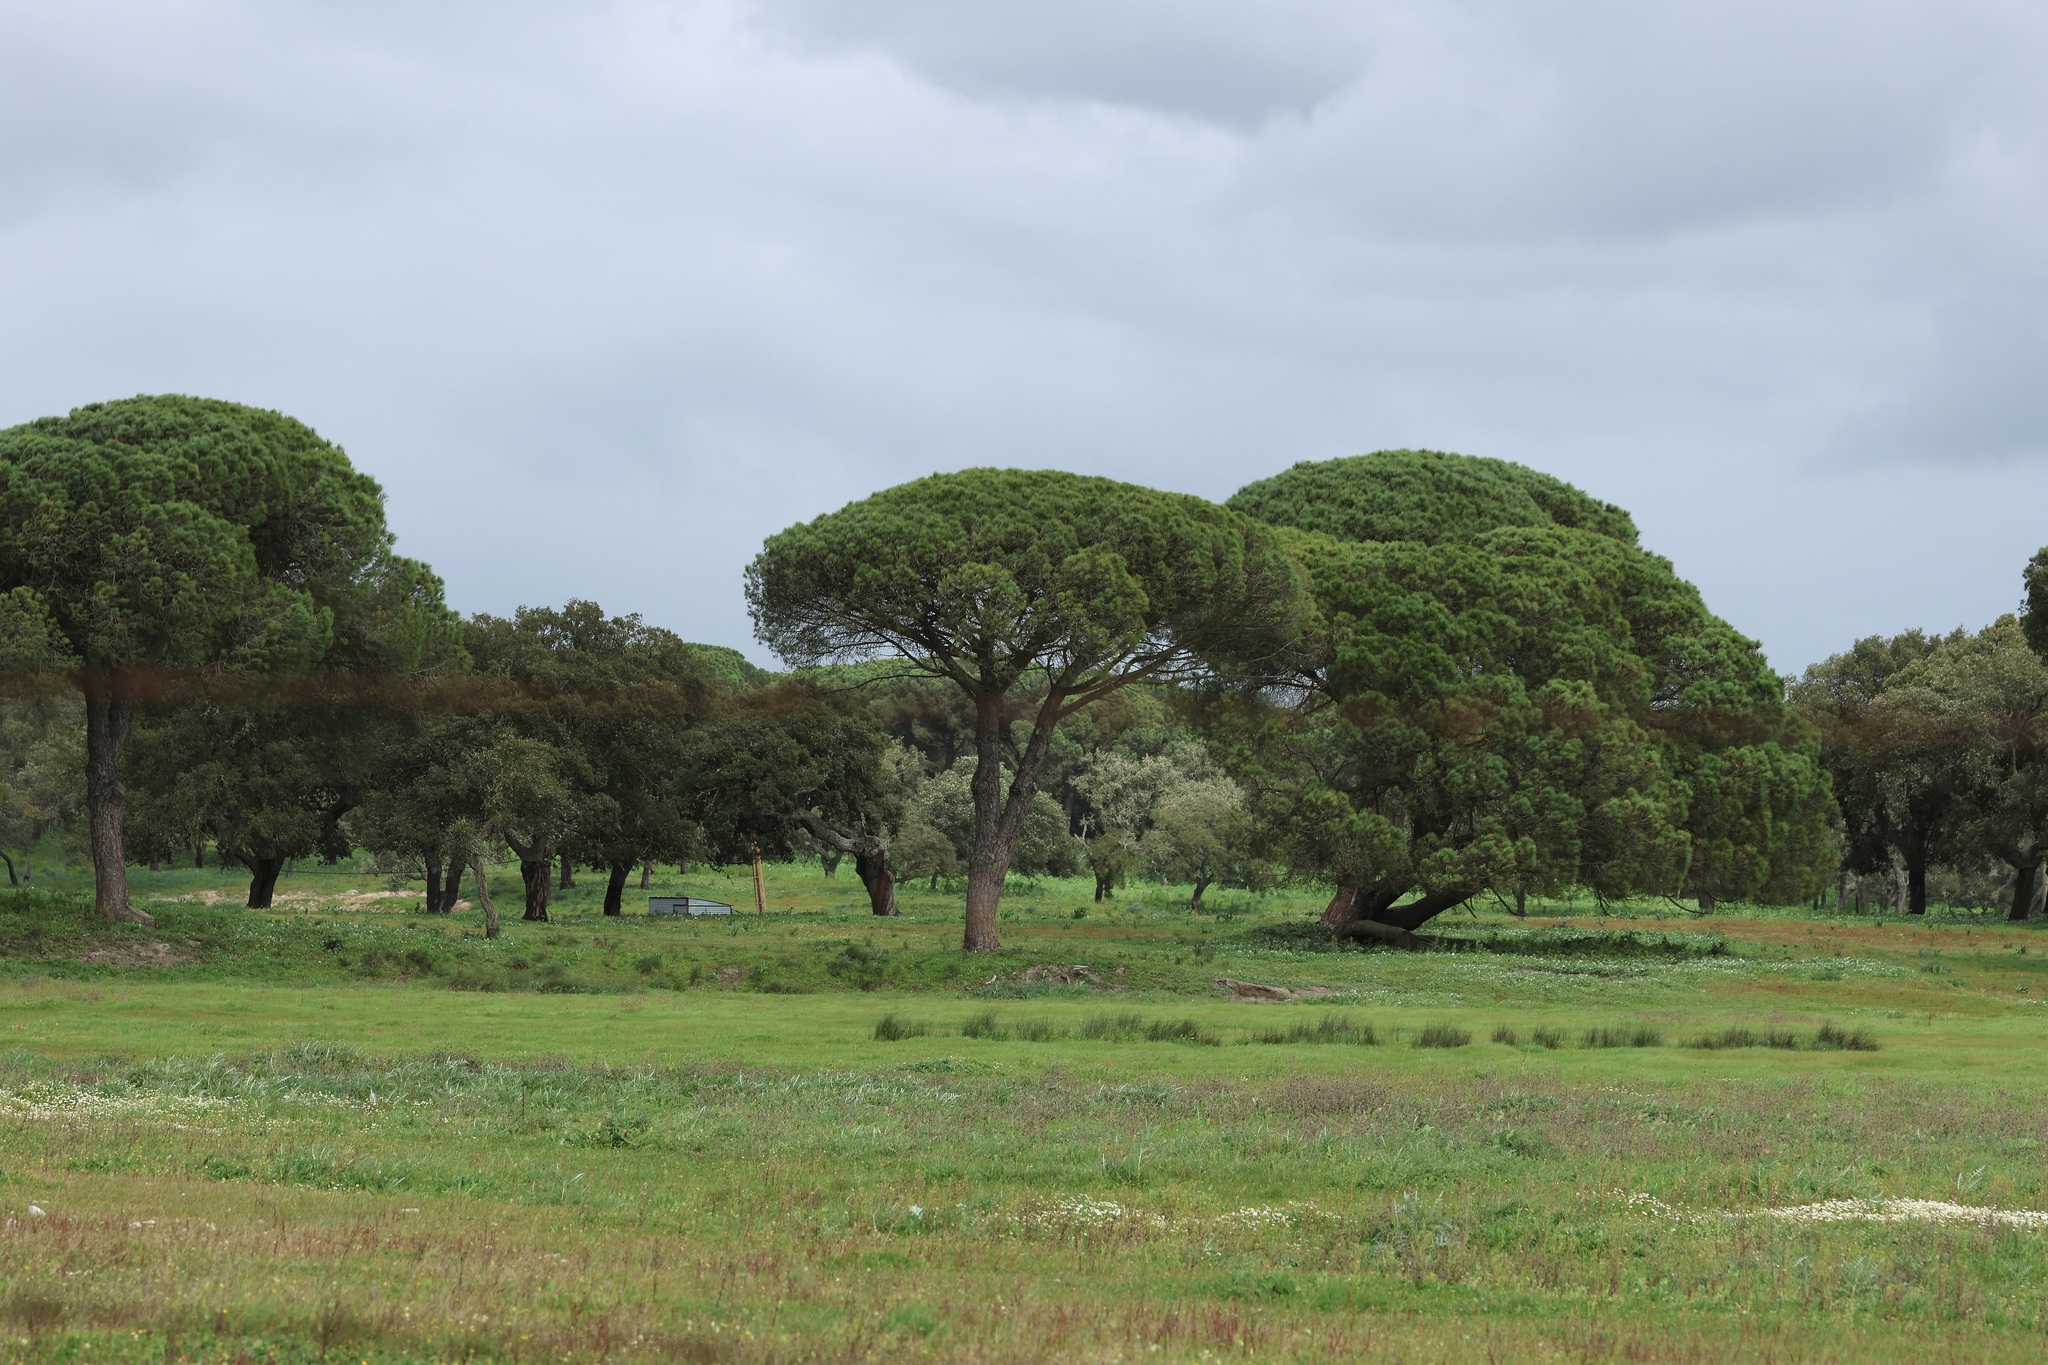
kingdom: Plantae
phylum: Tracheophyta
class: Pinopsida
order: Pinales
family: Pinaceae
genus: Pinus
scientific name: Pinus pinea
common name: Italian stone pine
